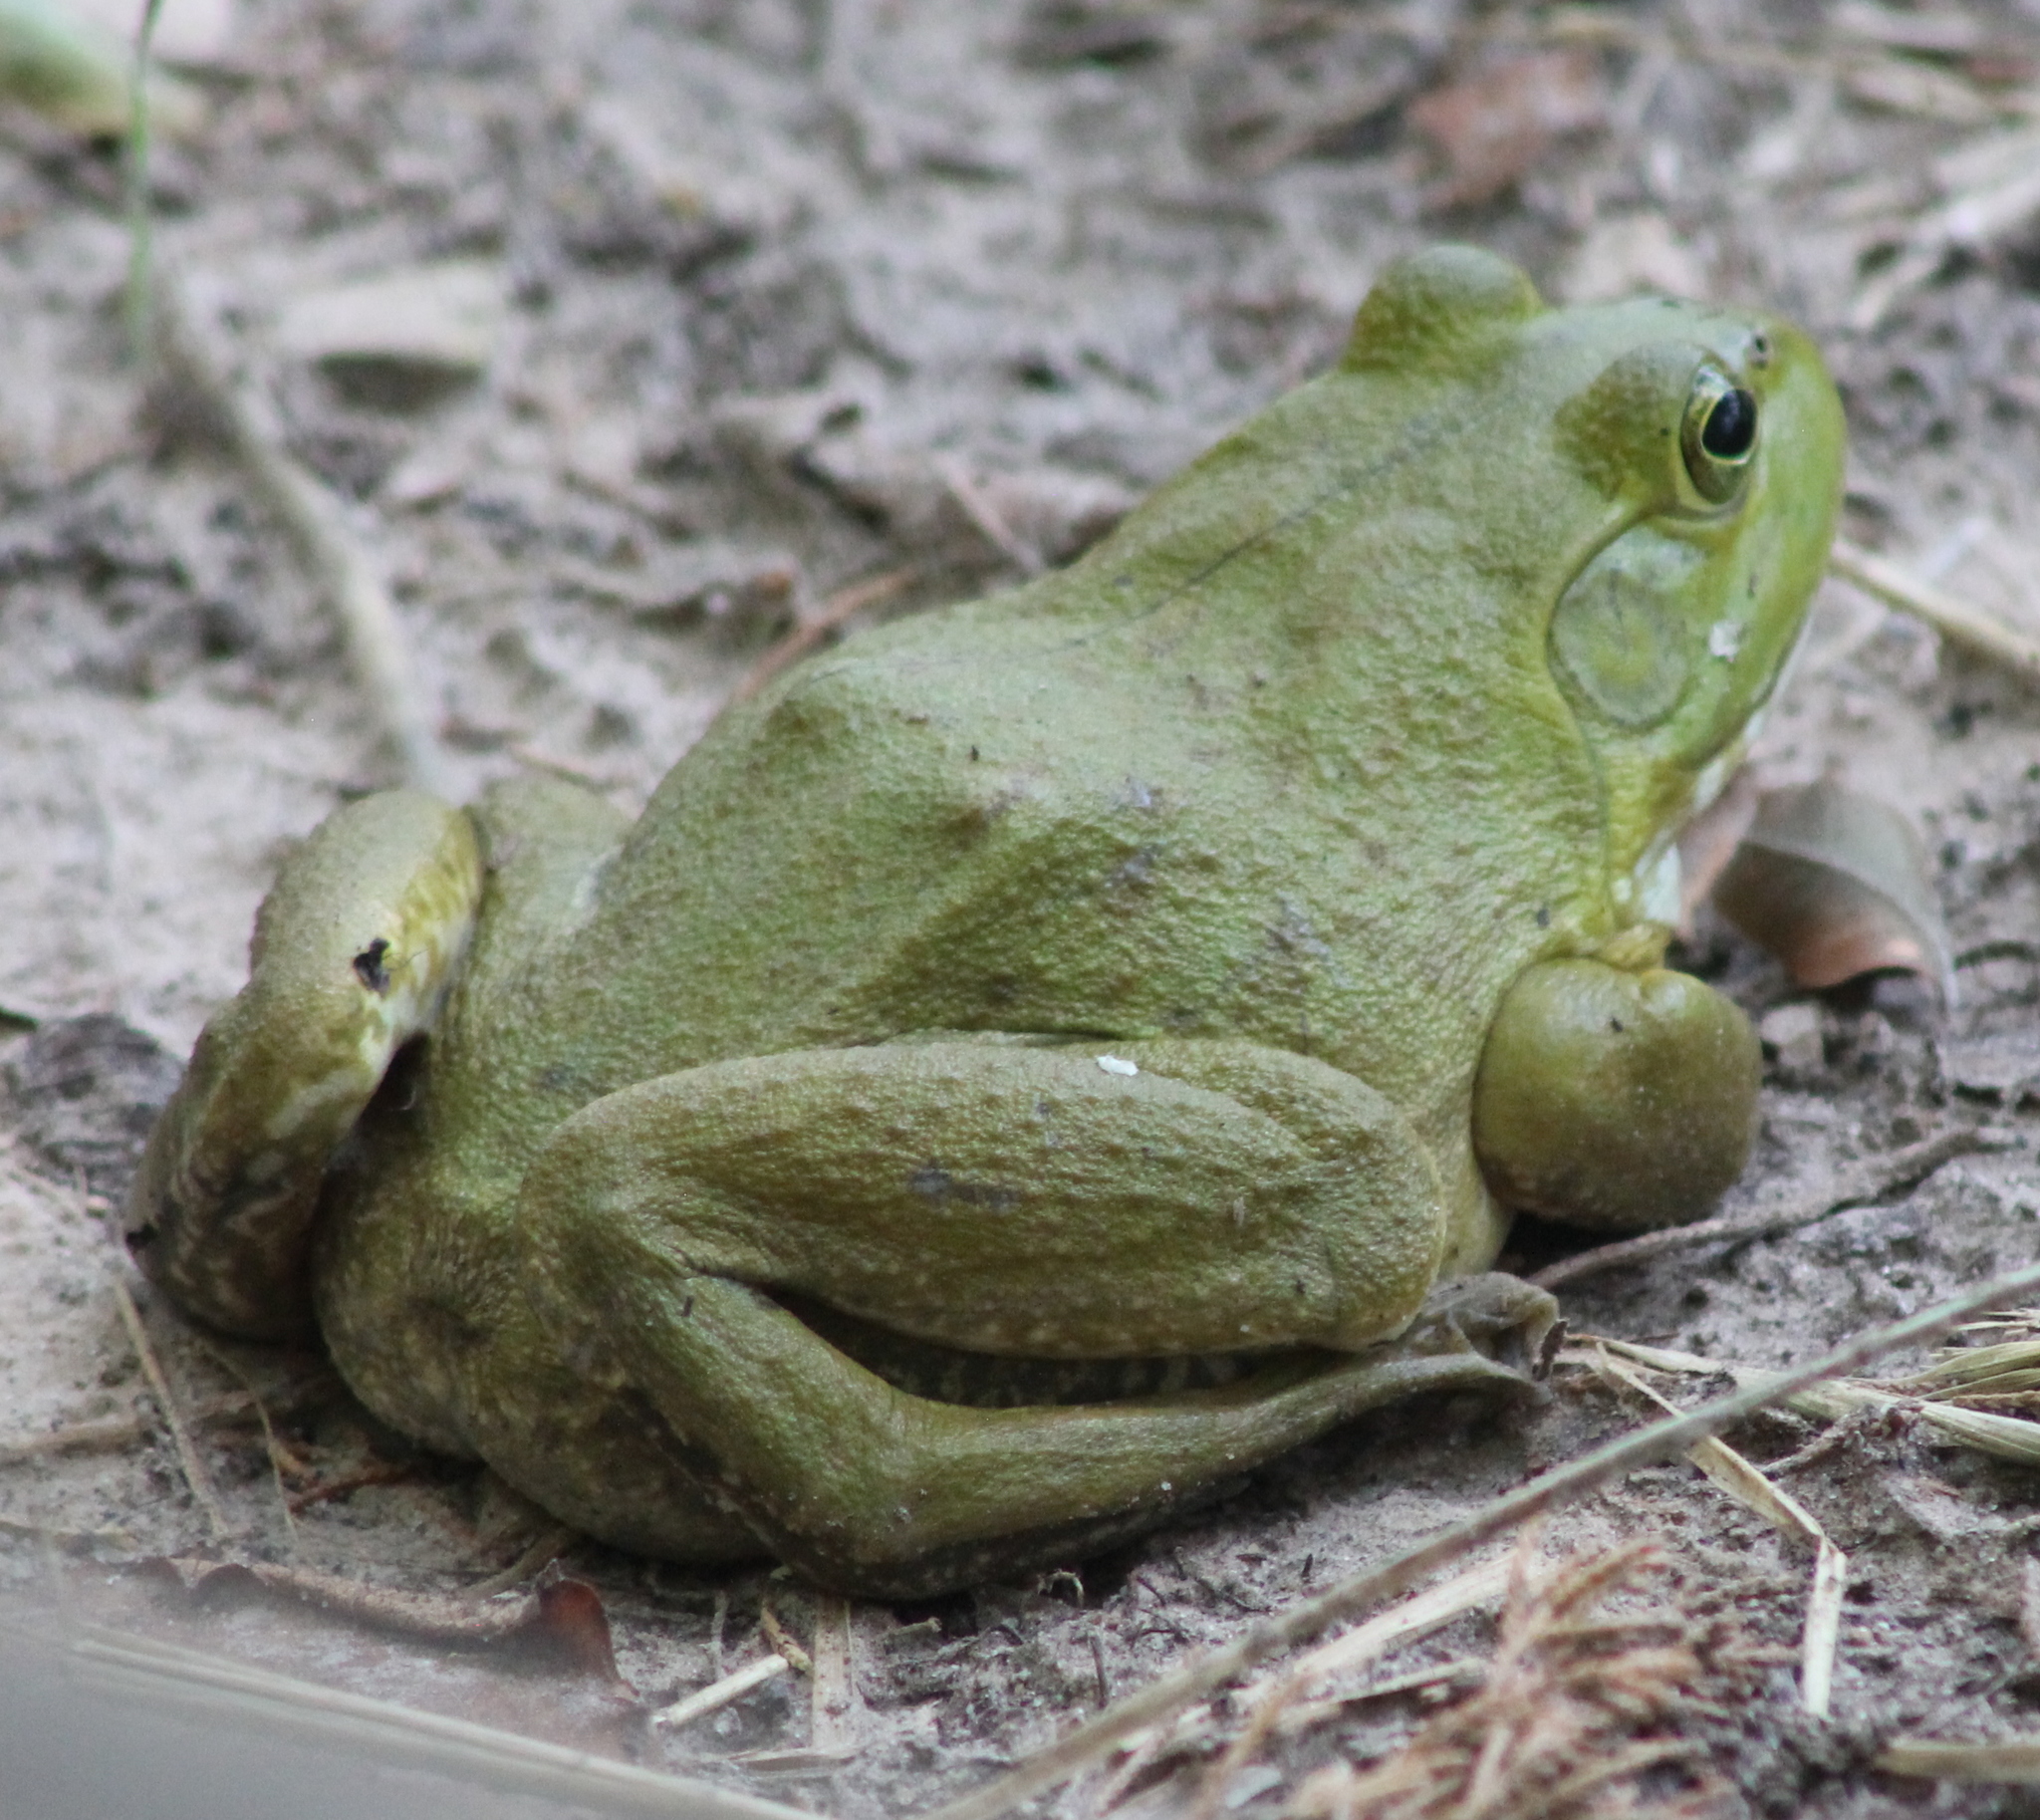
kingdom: Animalia
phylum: Chordata
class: Amphibia
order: Anura
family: Ranidae
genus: Lithobates
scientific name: Lithobates catesbeianus
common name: American bullfrog
